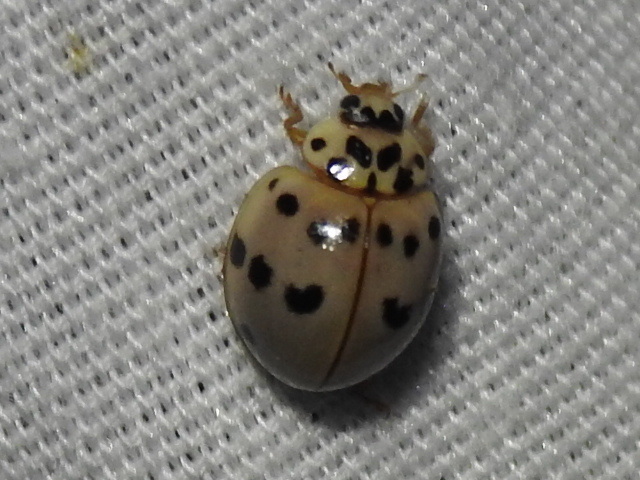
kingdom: Animalia
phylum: Arthropoda
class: Insecta
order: Coleoptera
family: Coccinellidae
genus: Olla
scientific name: Olla v-nigrum
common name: Ashy gray lady beetle
